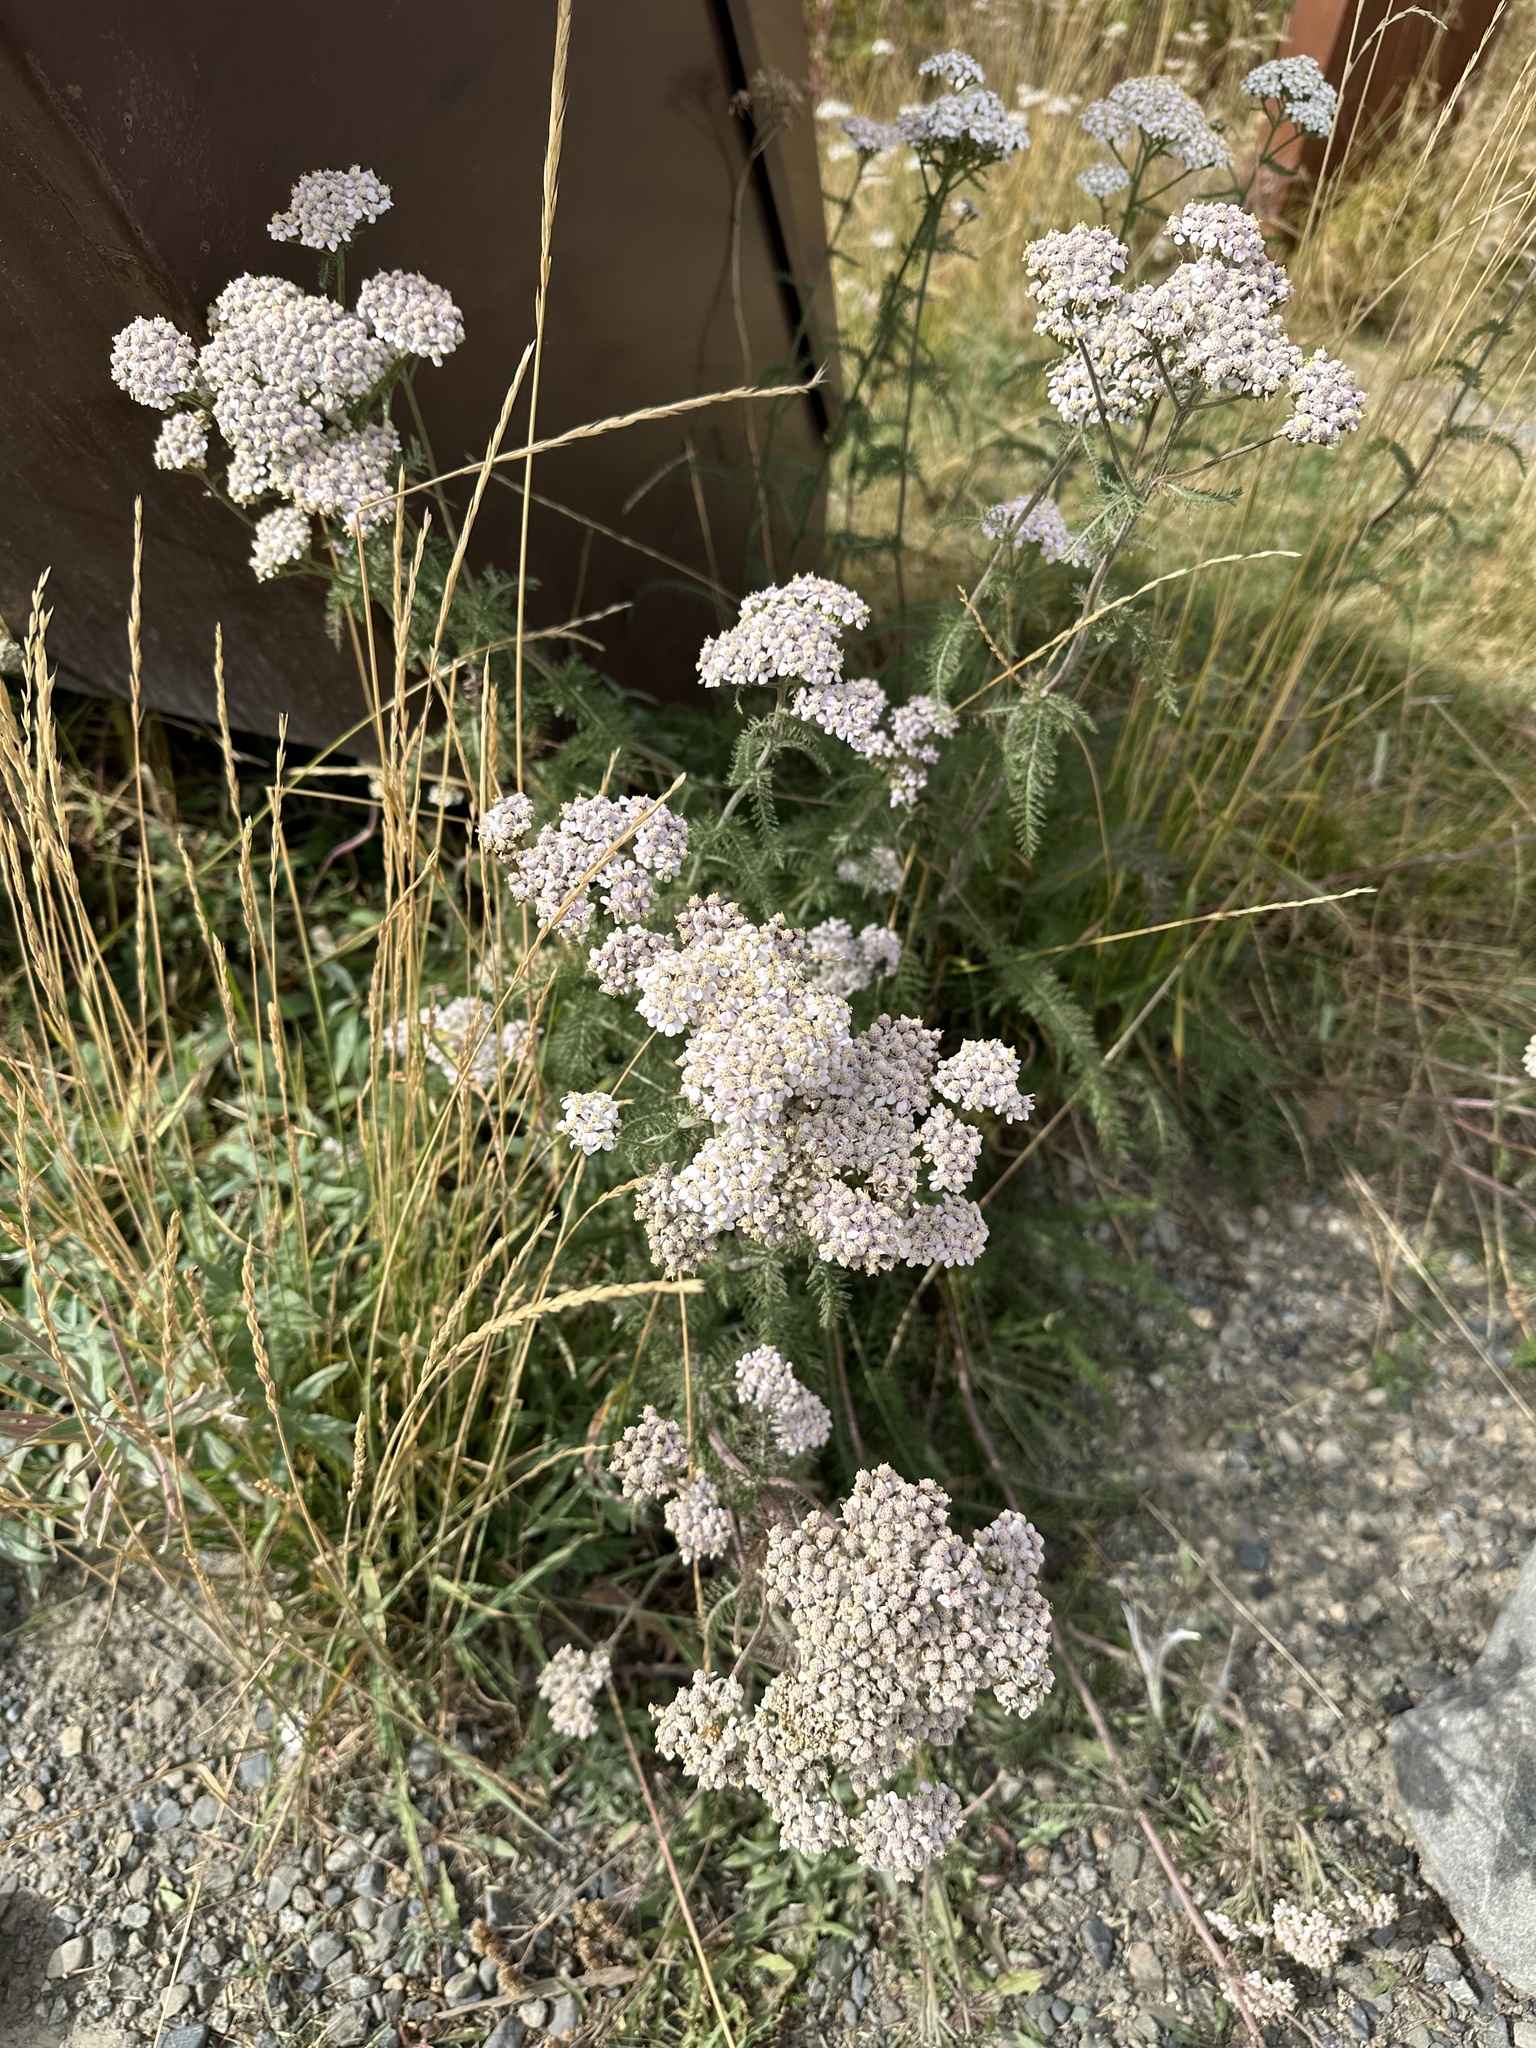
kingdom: Plantae
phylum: Tracheophyta
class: Magnoliopsida
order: Asterales
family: Asteraceae
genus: Achillea
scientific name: Achillea millefolium
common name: Yarrow
